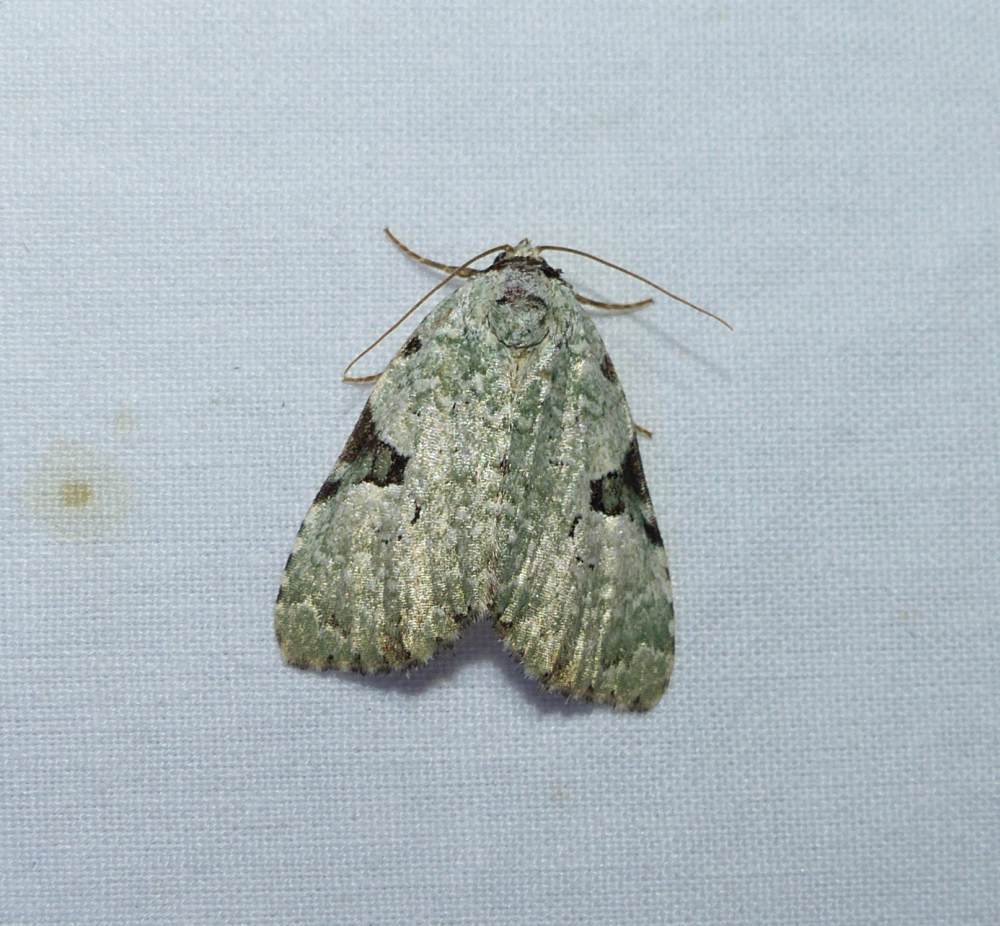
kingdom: Animalia
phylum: Arthropoda
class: Insecta
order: Lepidoptera
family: Noctuidae
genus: Leuconycta
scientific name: Leuconycta diphteroides
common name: Green leuconycta moth
